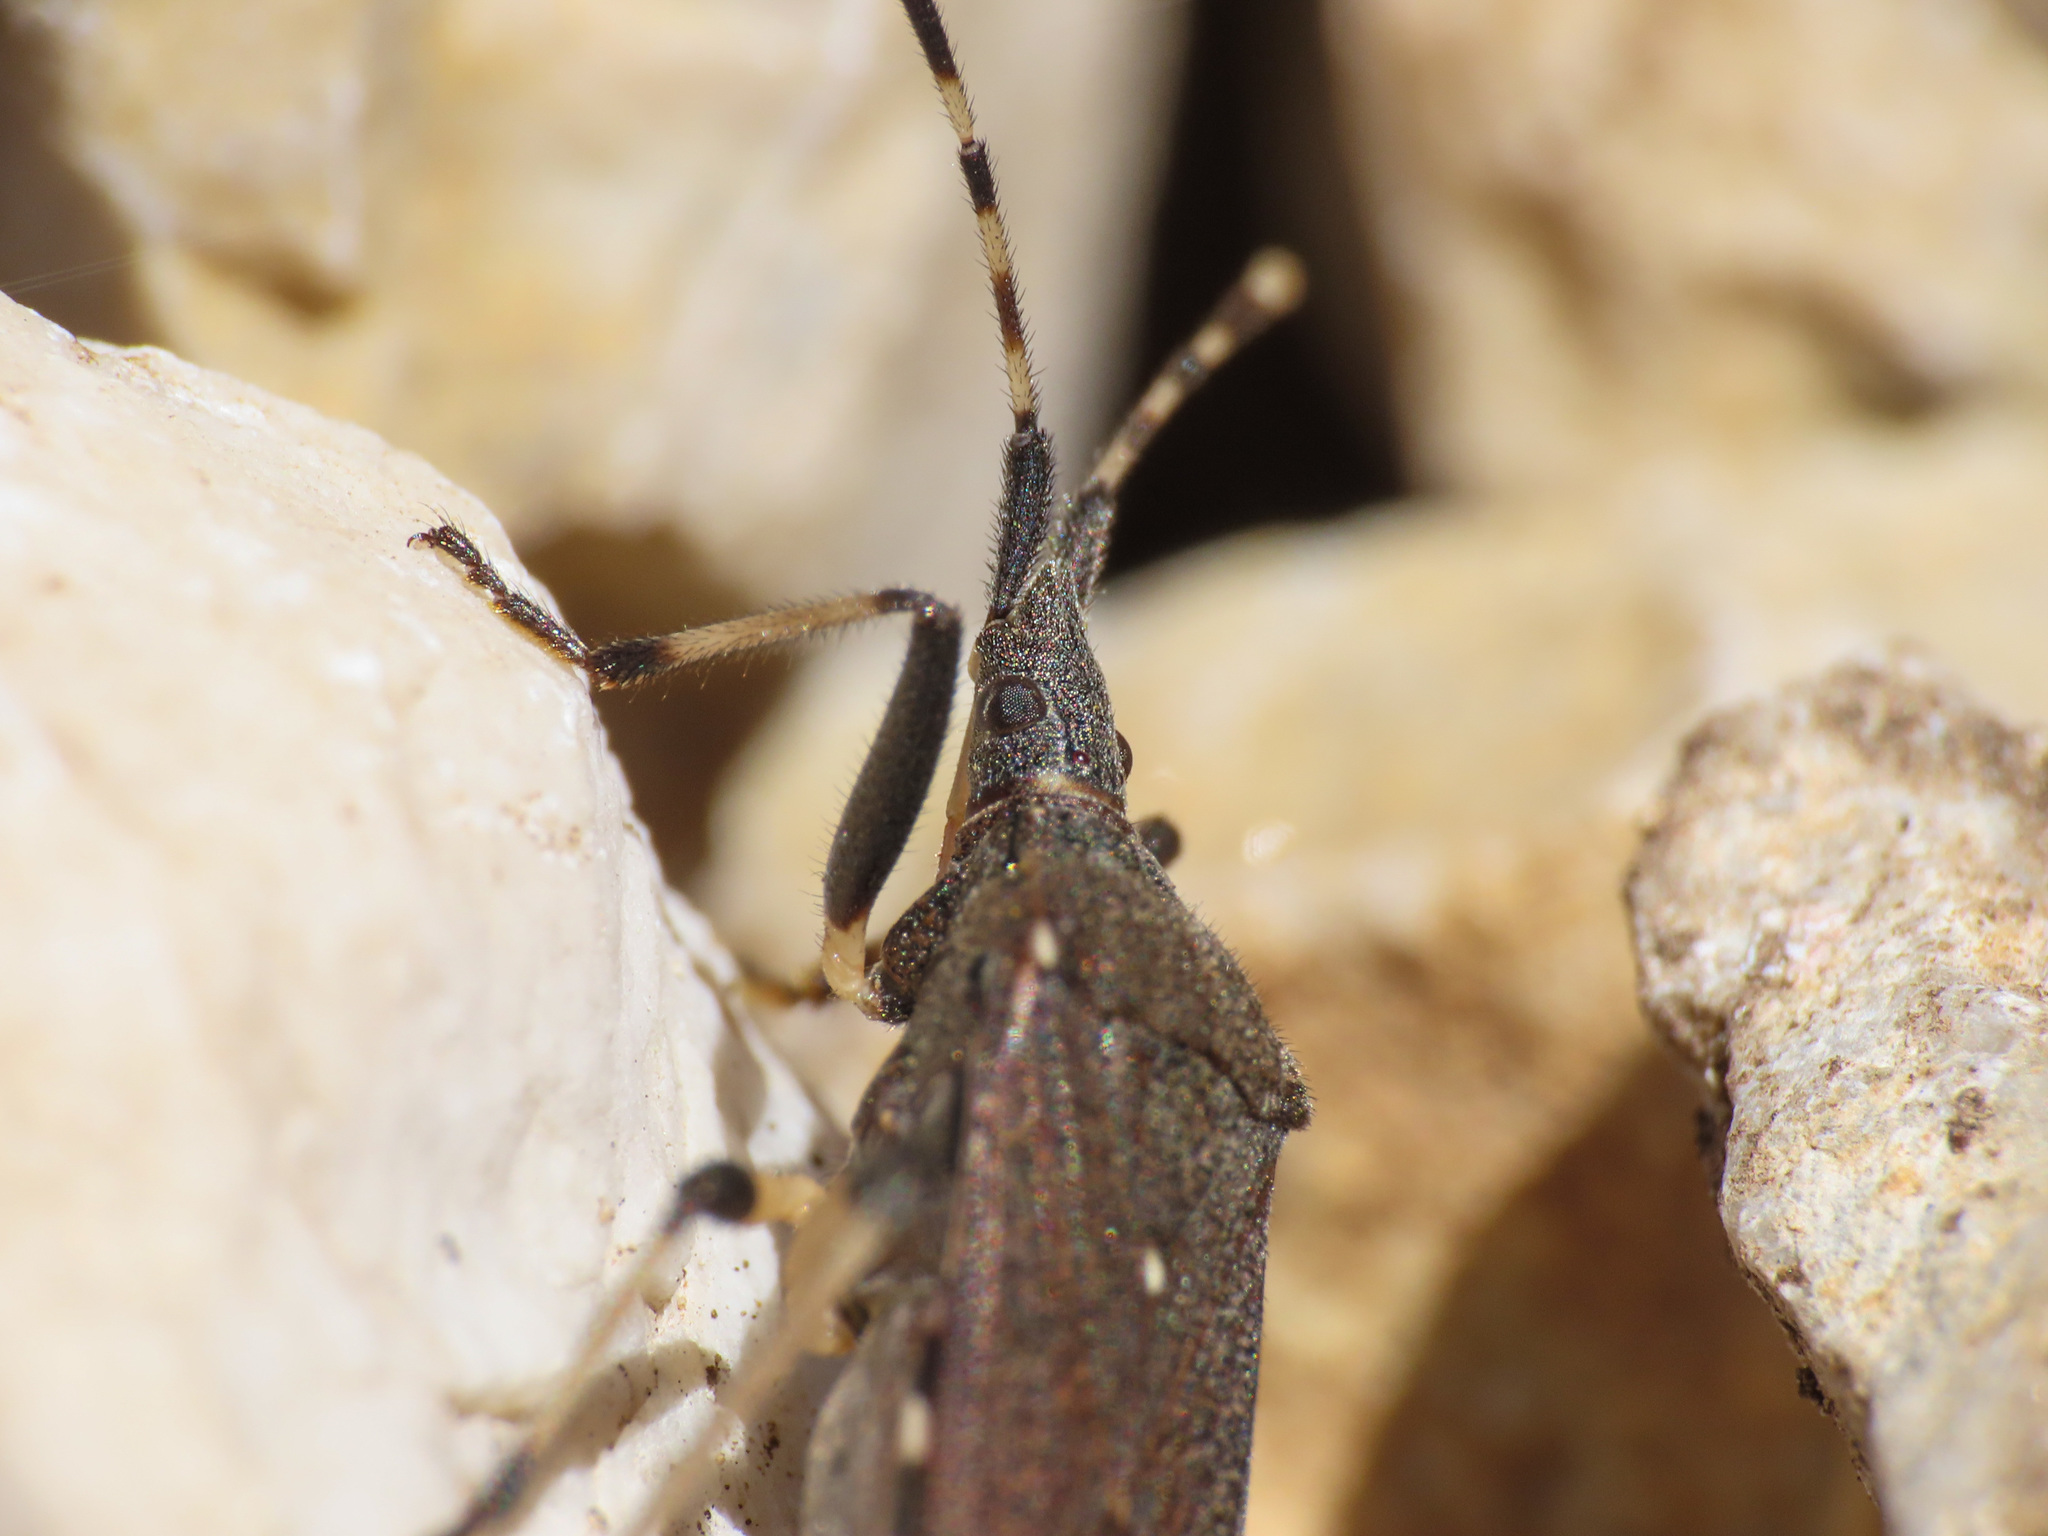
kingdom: Animalia
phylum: Arthropoda
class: Insecta
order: Hemiptera
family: Stenocephalidae
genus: Dicranocephalus
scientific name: Dicranocephalus agilis
